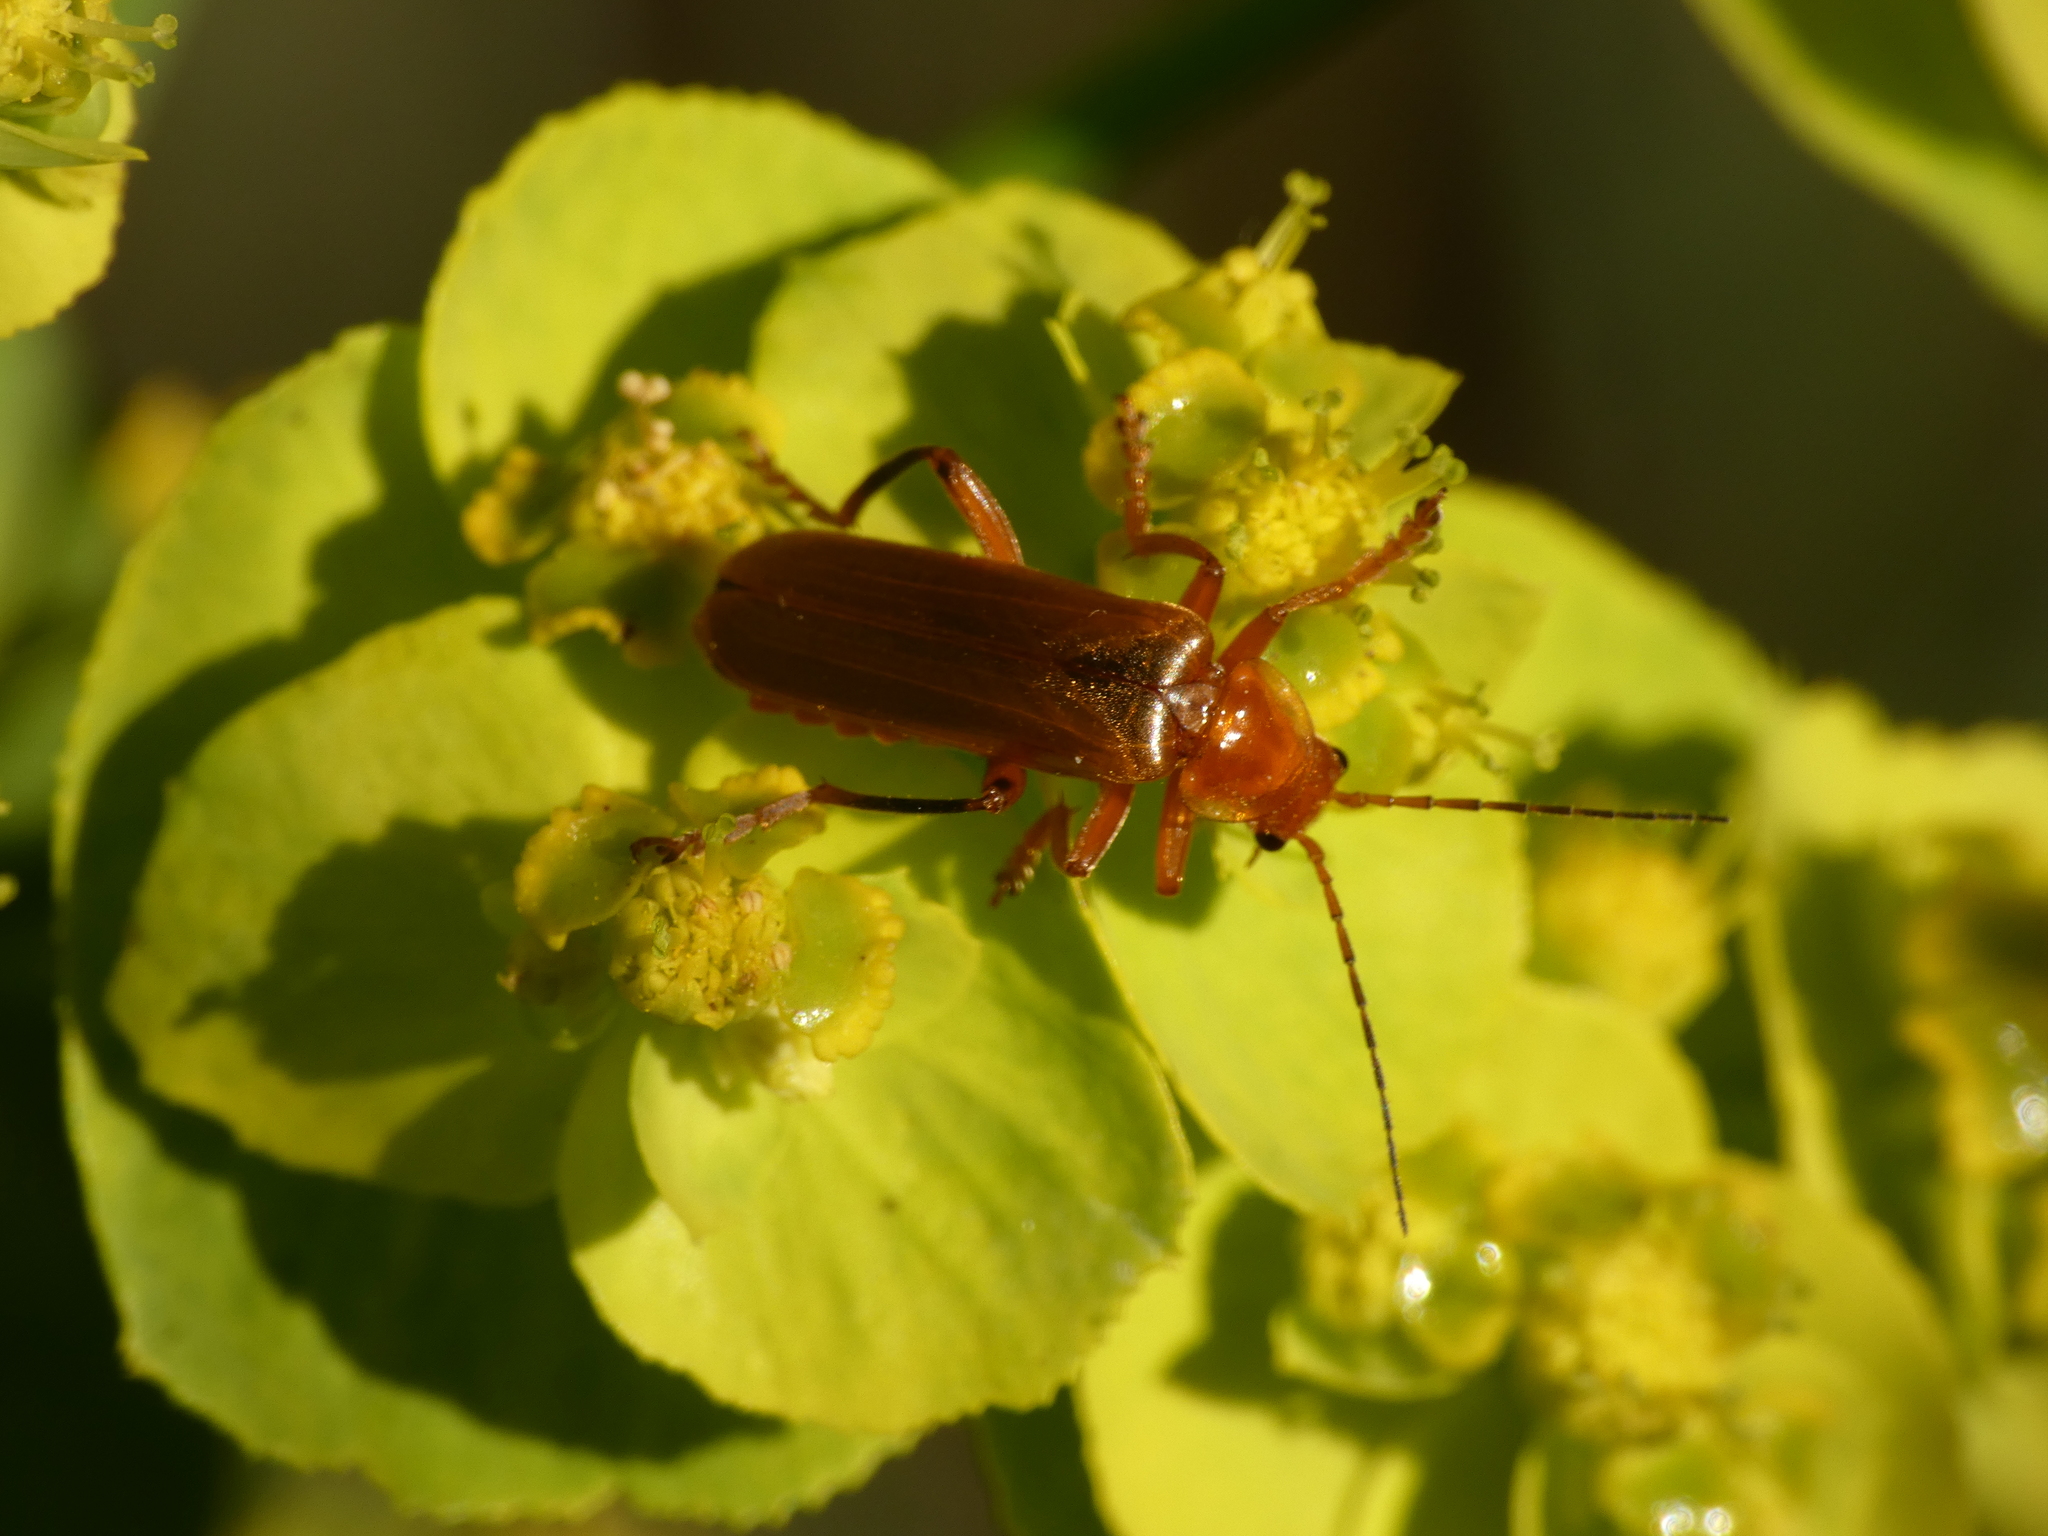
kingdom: Animalia
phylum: Arthropoda
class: Insecta
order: Coleoptera
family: Cantharidae
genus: Cantharis
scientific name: Cantharis rufa
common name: Red-spotted soldier beetle
